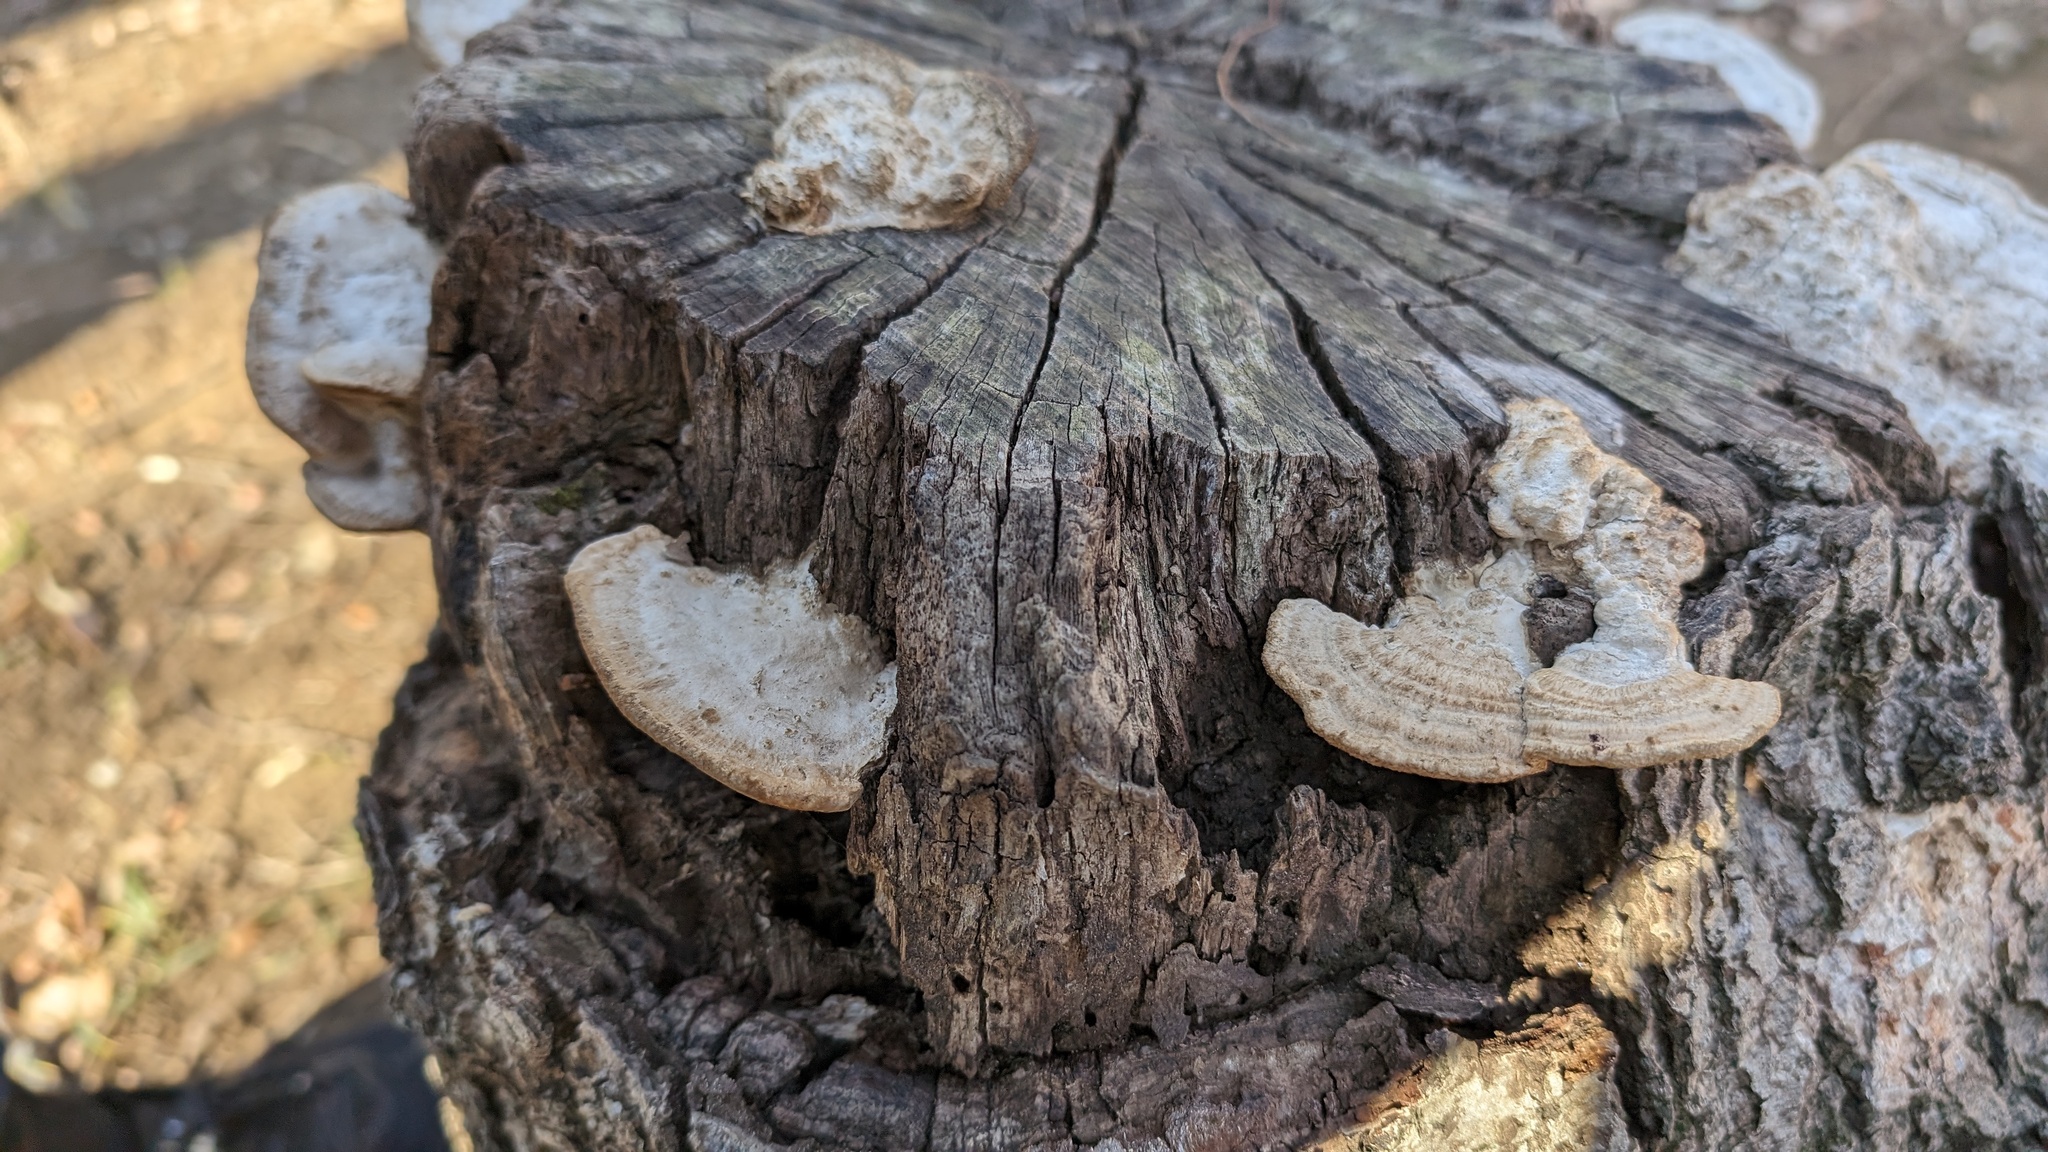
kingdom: Fungi
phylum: Basidiomycota
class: Agaricomycetes
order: Polyporales
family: Fomitopsidaceae
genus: Fomitopsis
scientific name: Fomitopsis
